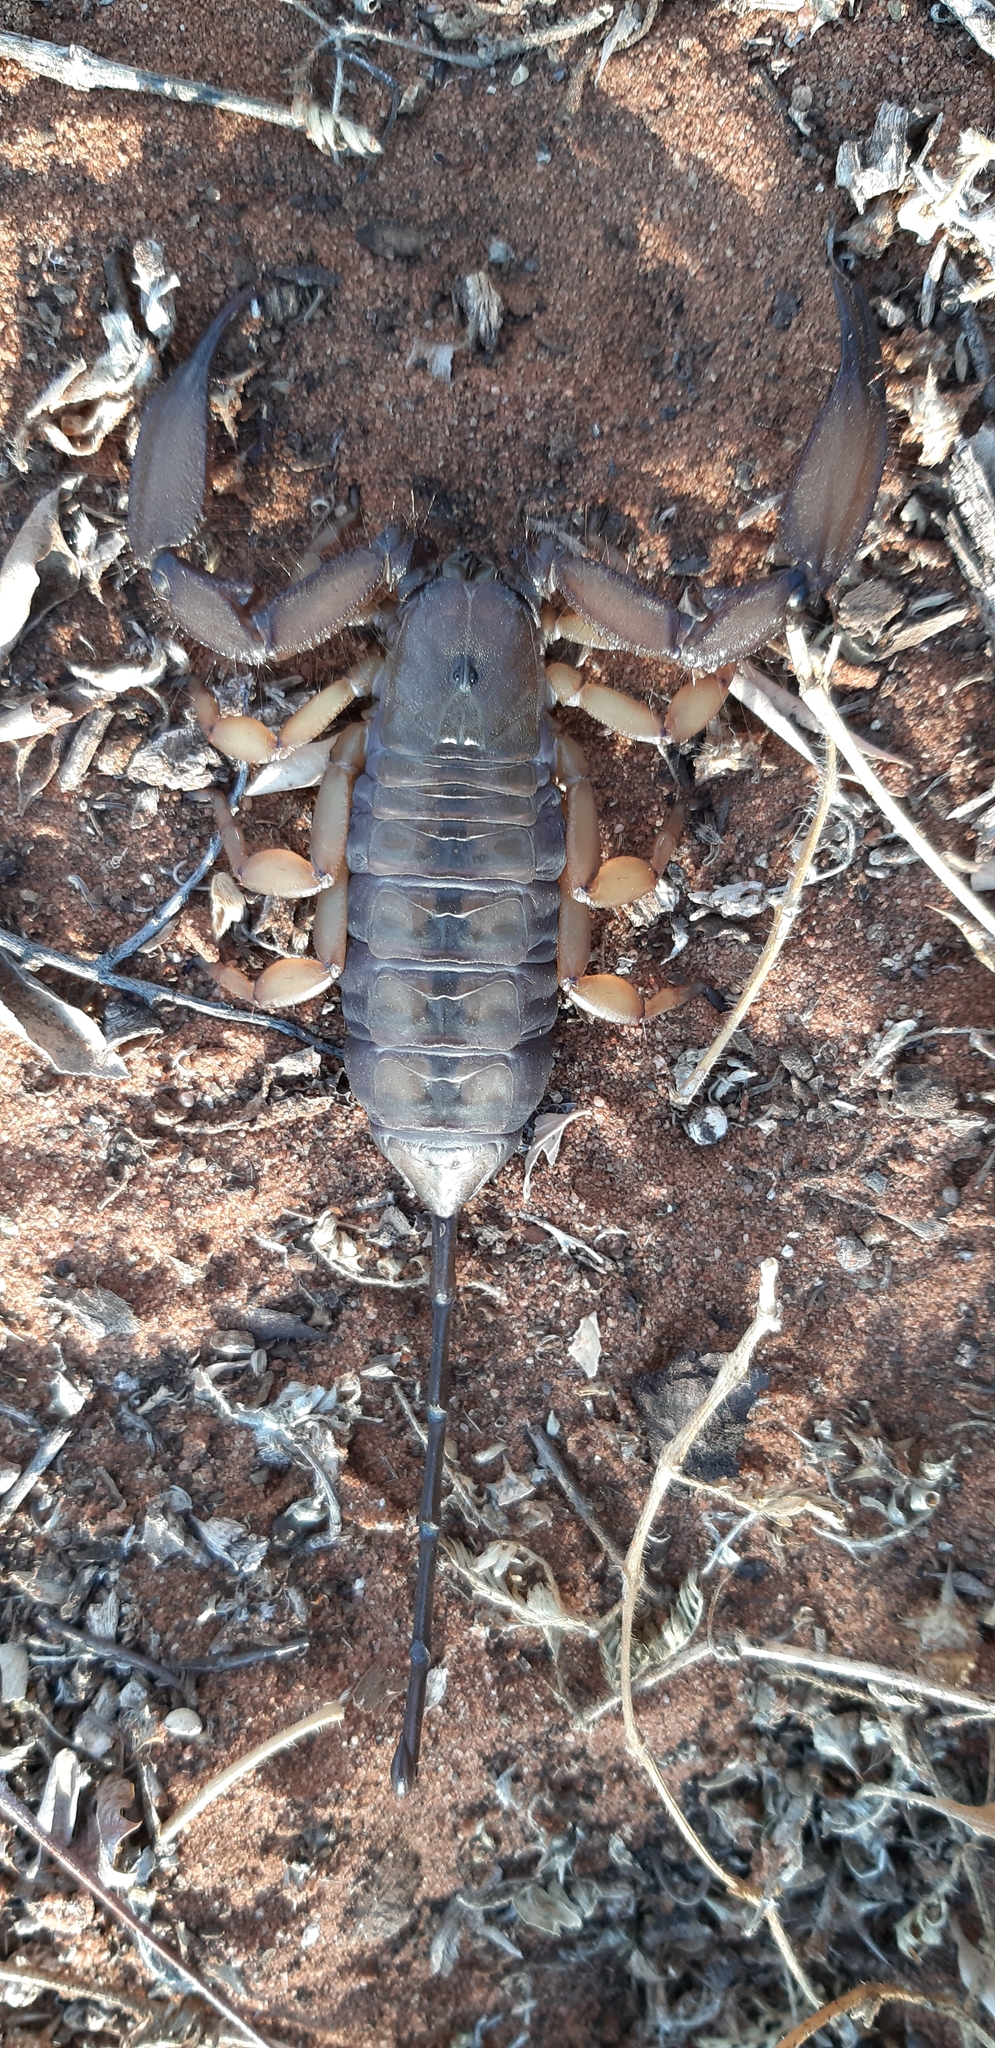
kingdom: Animalia
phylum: Arthropoda
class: Arachnida
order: Scorpiones
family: Hormuridae
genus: Hadogenes
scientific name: Hadogenes troglodytes
